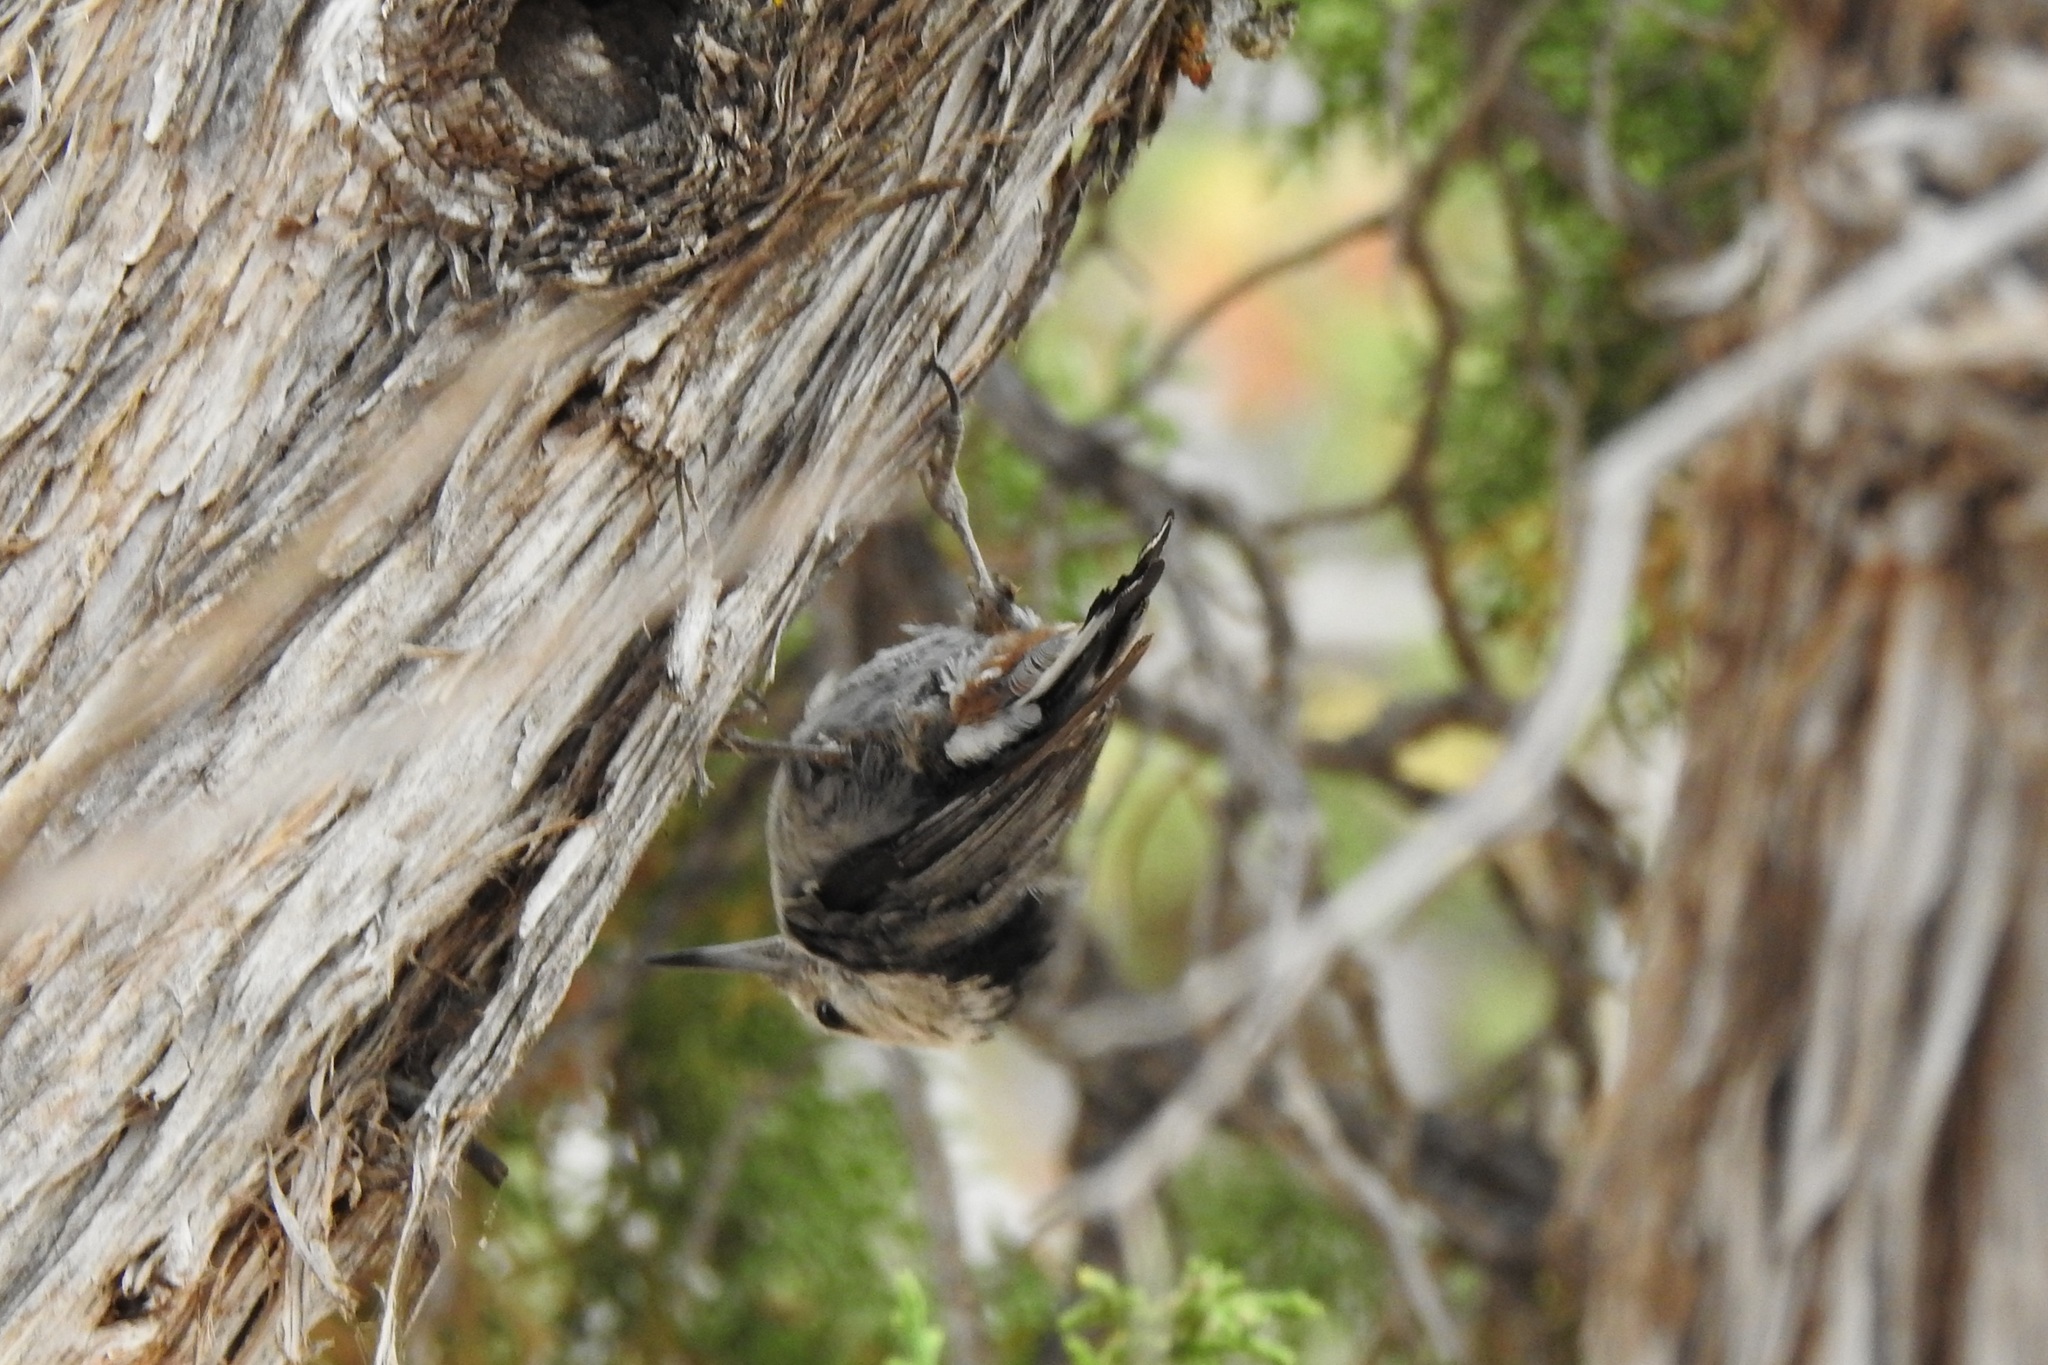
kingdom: Animalia
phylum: Chordata
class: Aves
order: Passeriformes
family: Sittidae
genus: Sitta
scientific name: Sitta carolinensis
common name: White-breasted nuthatch
